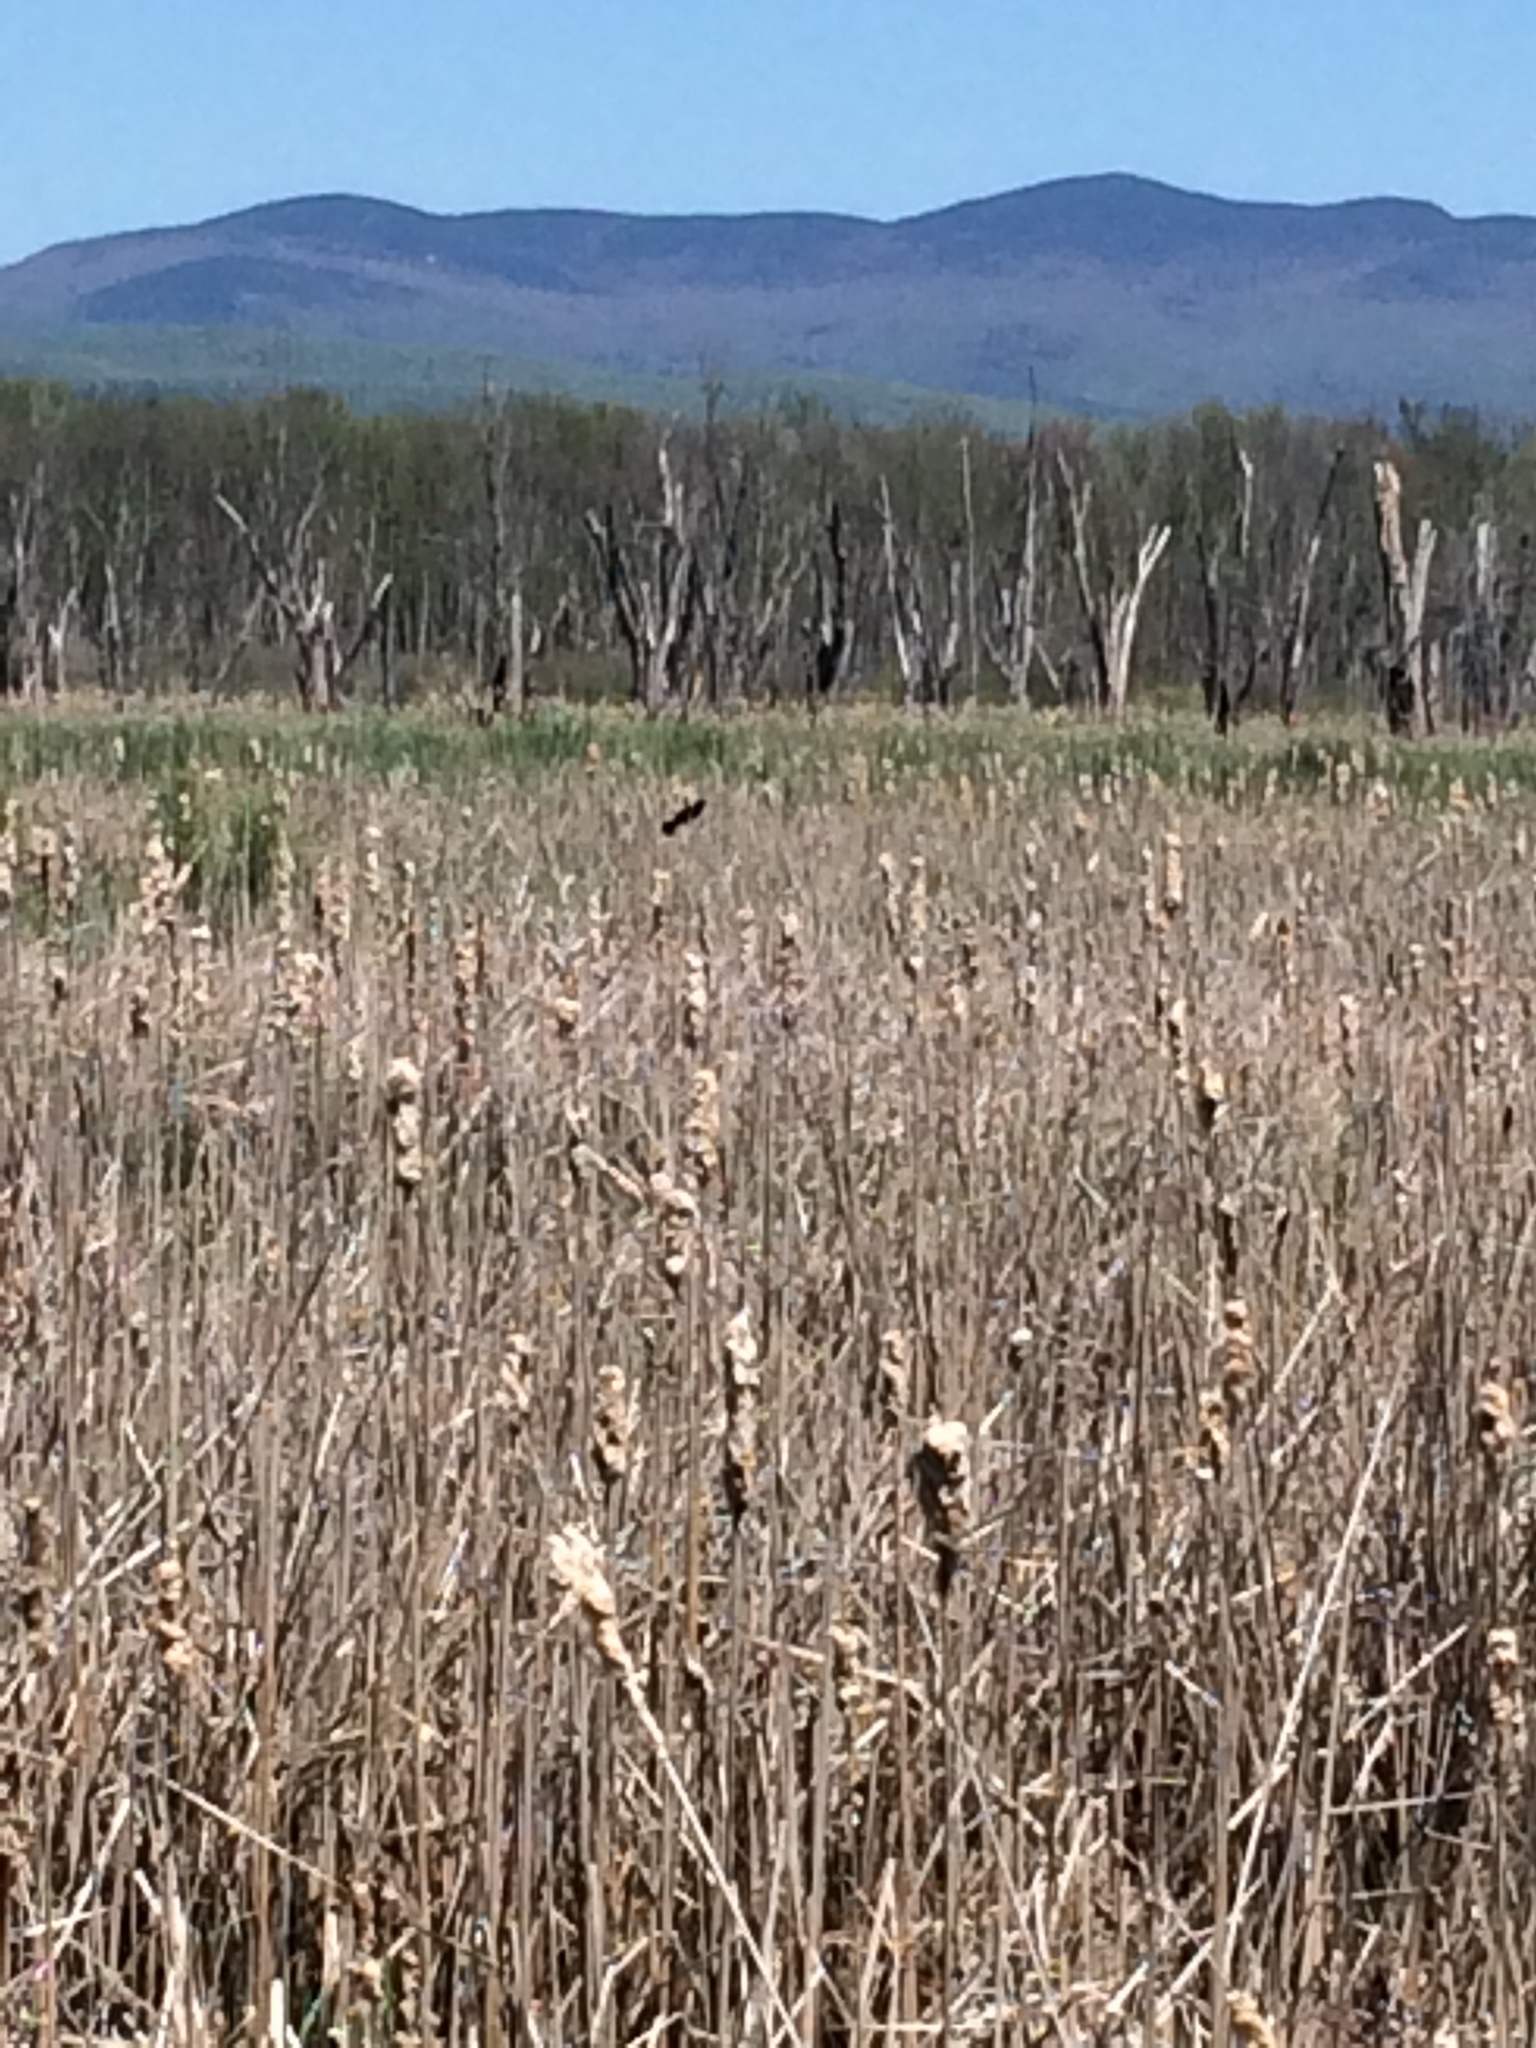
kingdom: Animalia
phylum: Chordata
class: Aves
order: Passeriformes
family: Icteridae
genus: Agelaius
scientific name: Agelaius phoeniceus
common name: Red-winged blackbird
